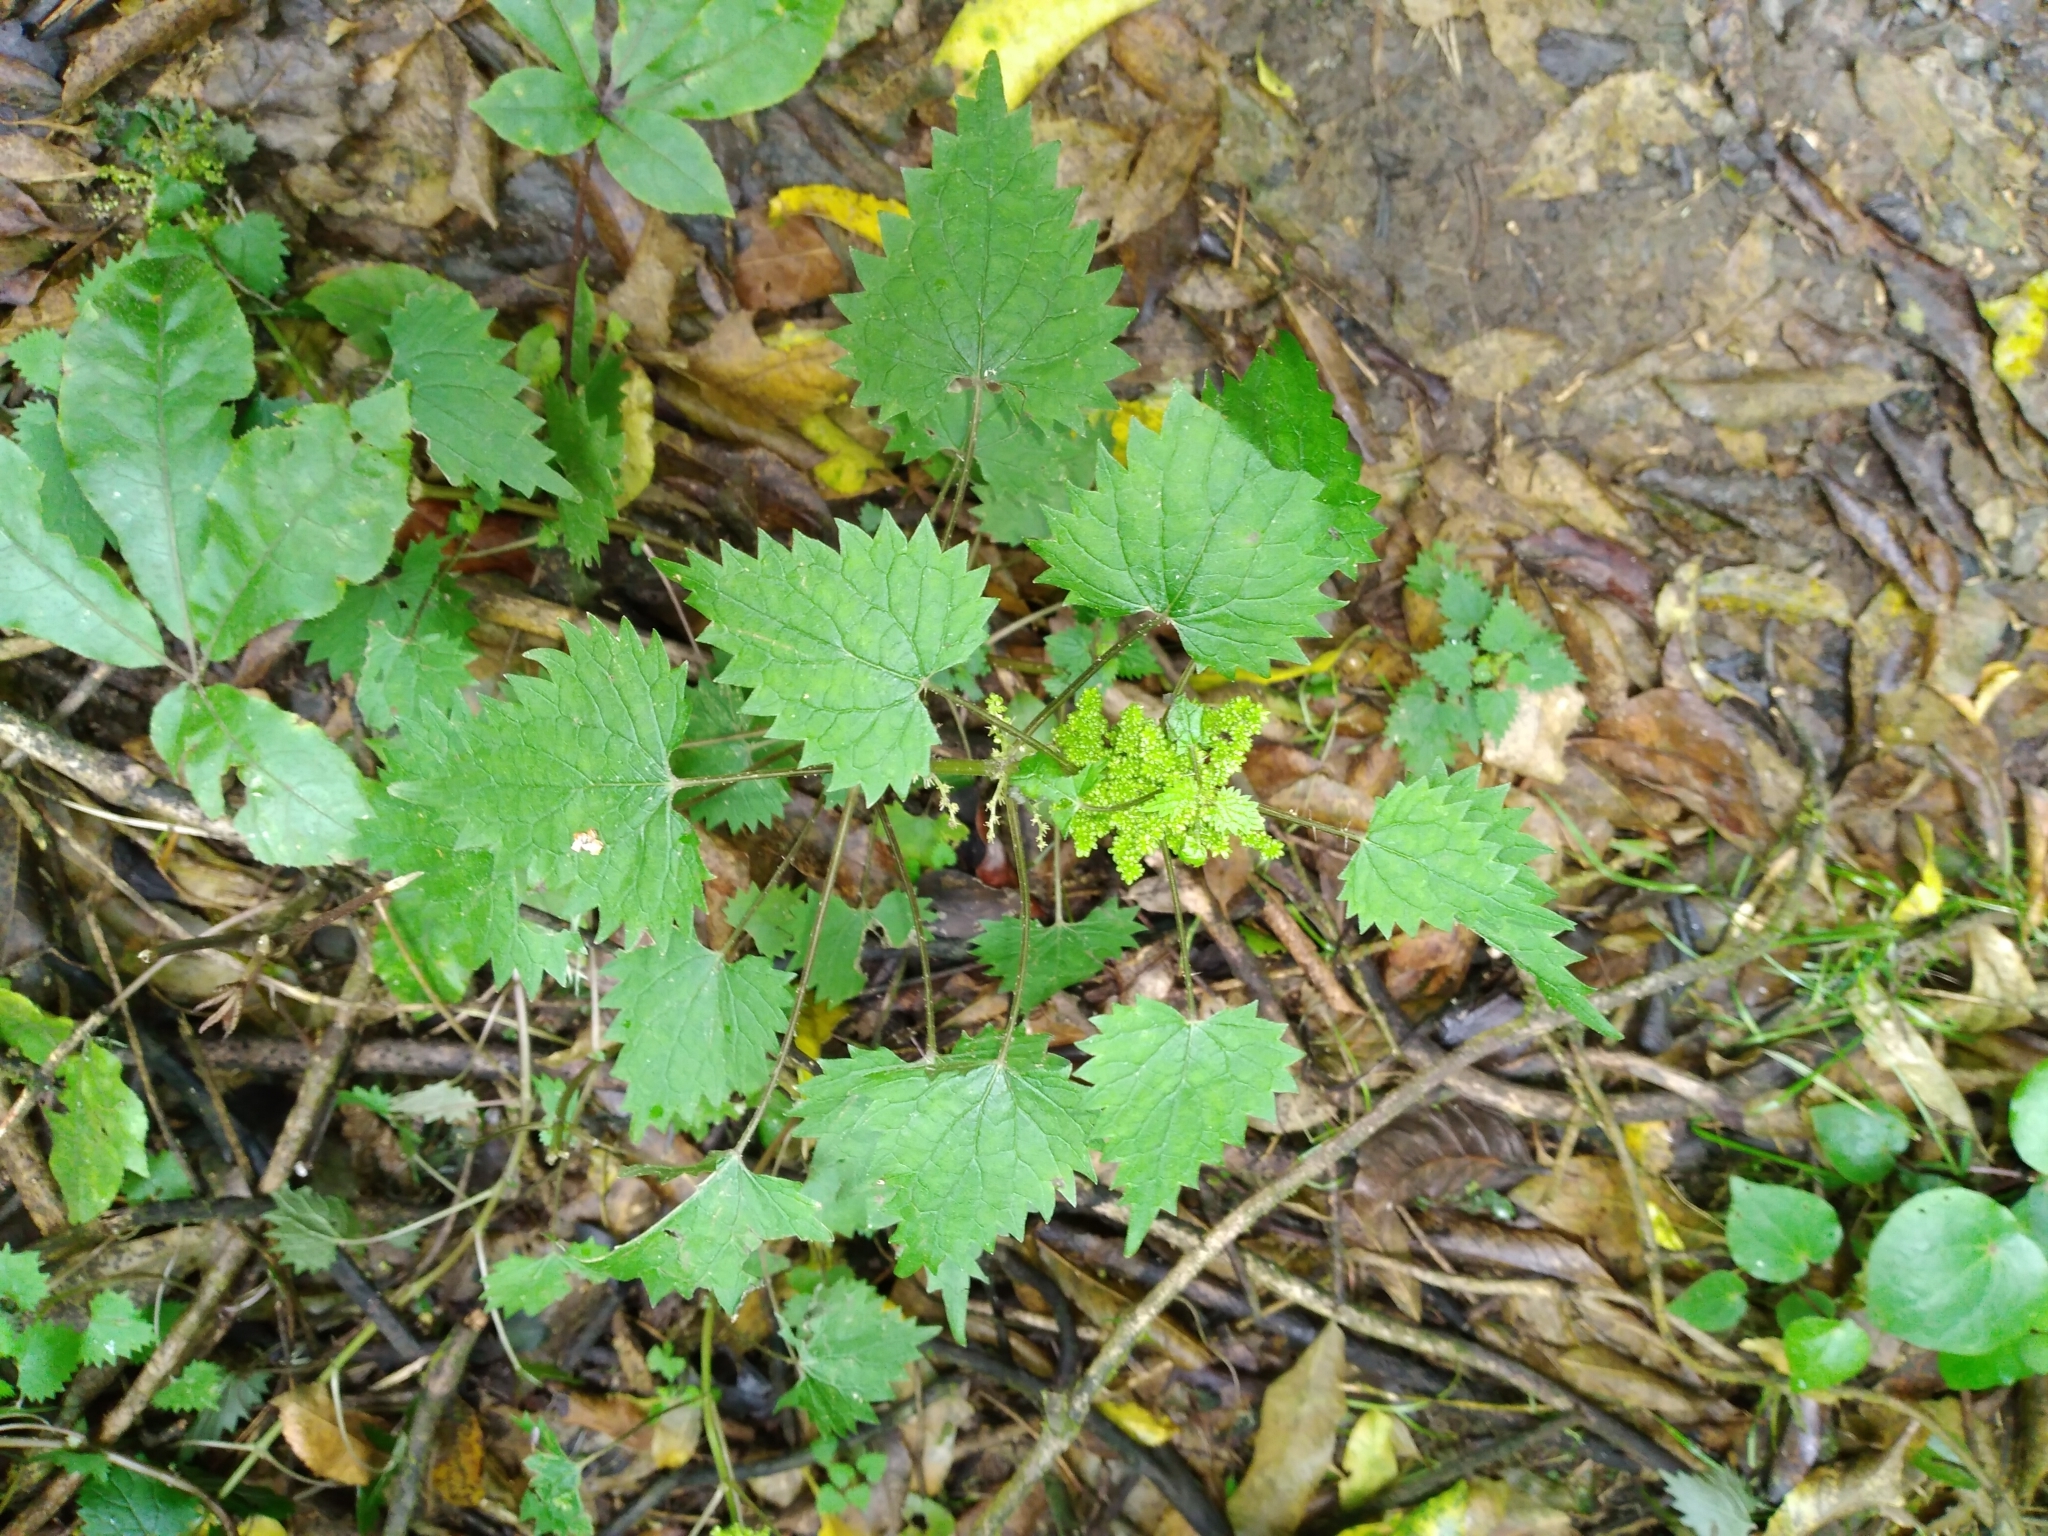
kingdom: Plantae
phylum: Tracheophyta
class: Magnoliopsida
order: Rosales
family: Urticaceae
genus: Urtica
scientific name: Urtica sykesii
